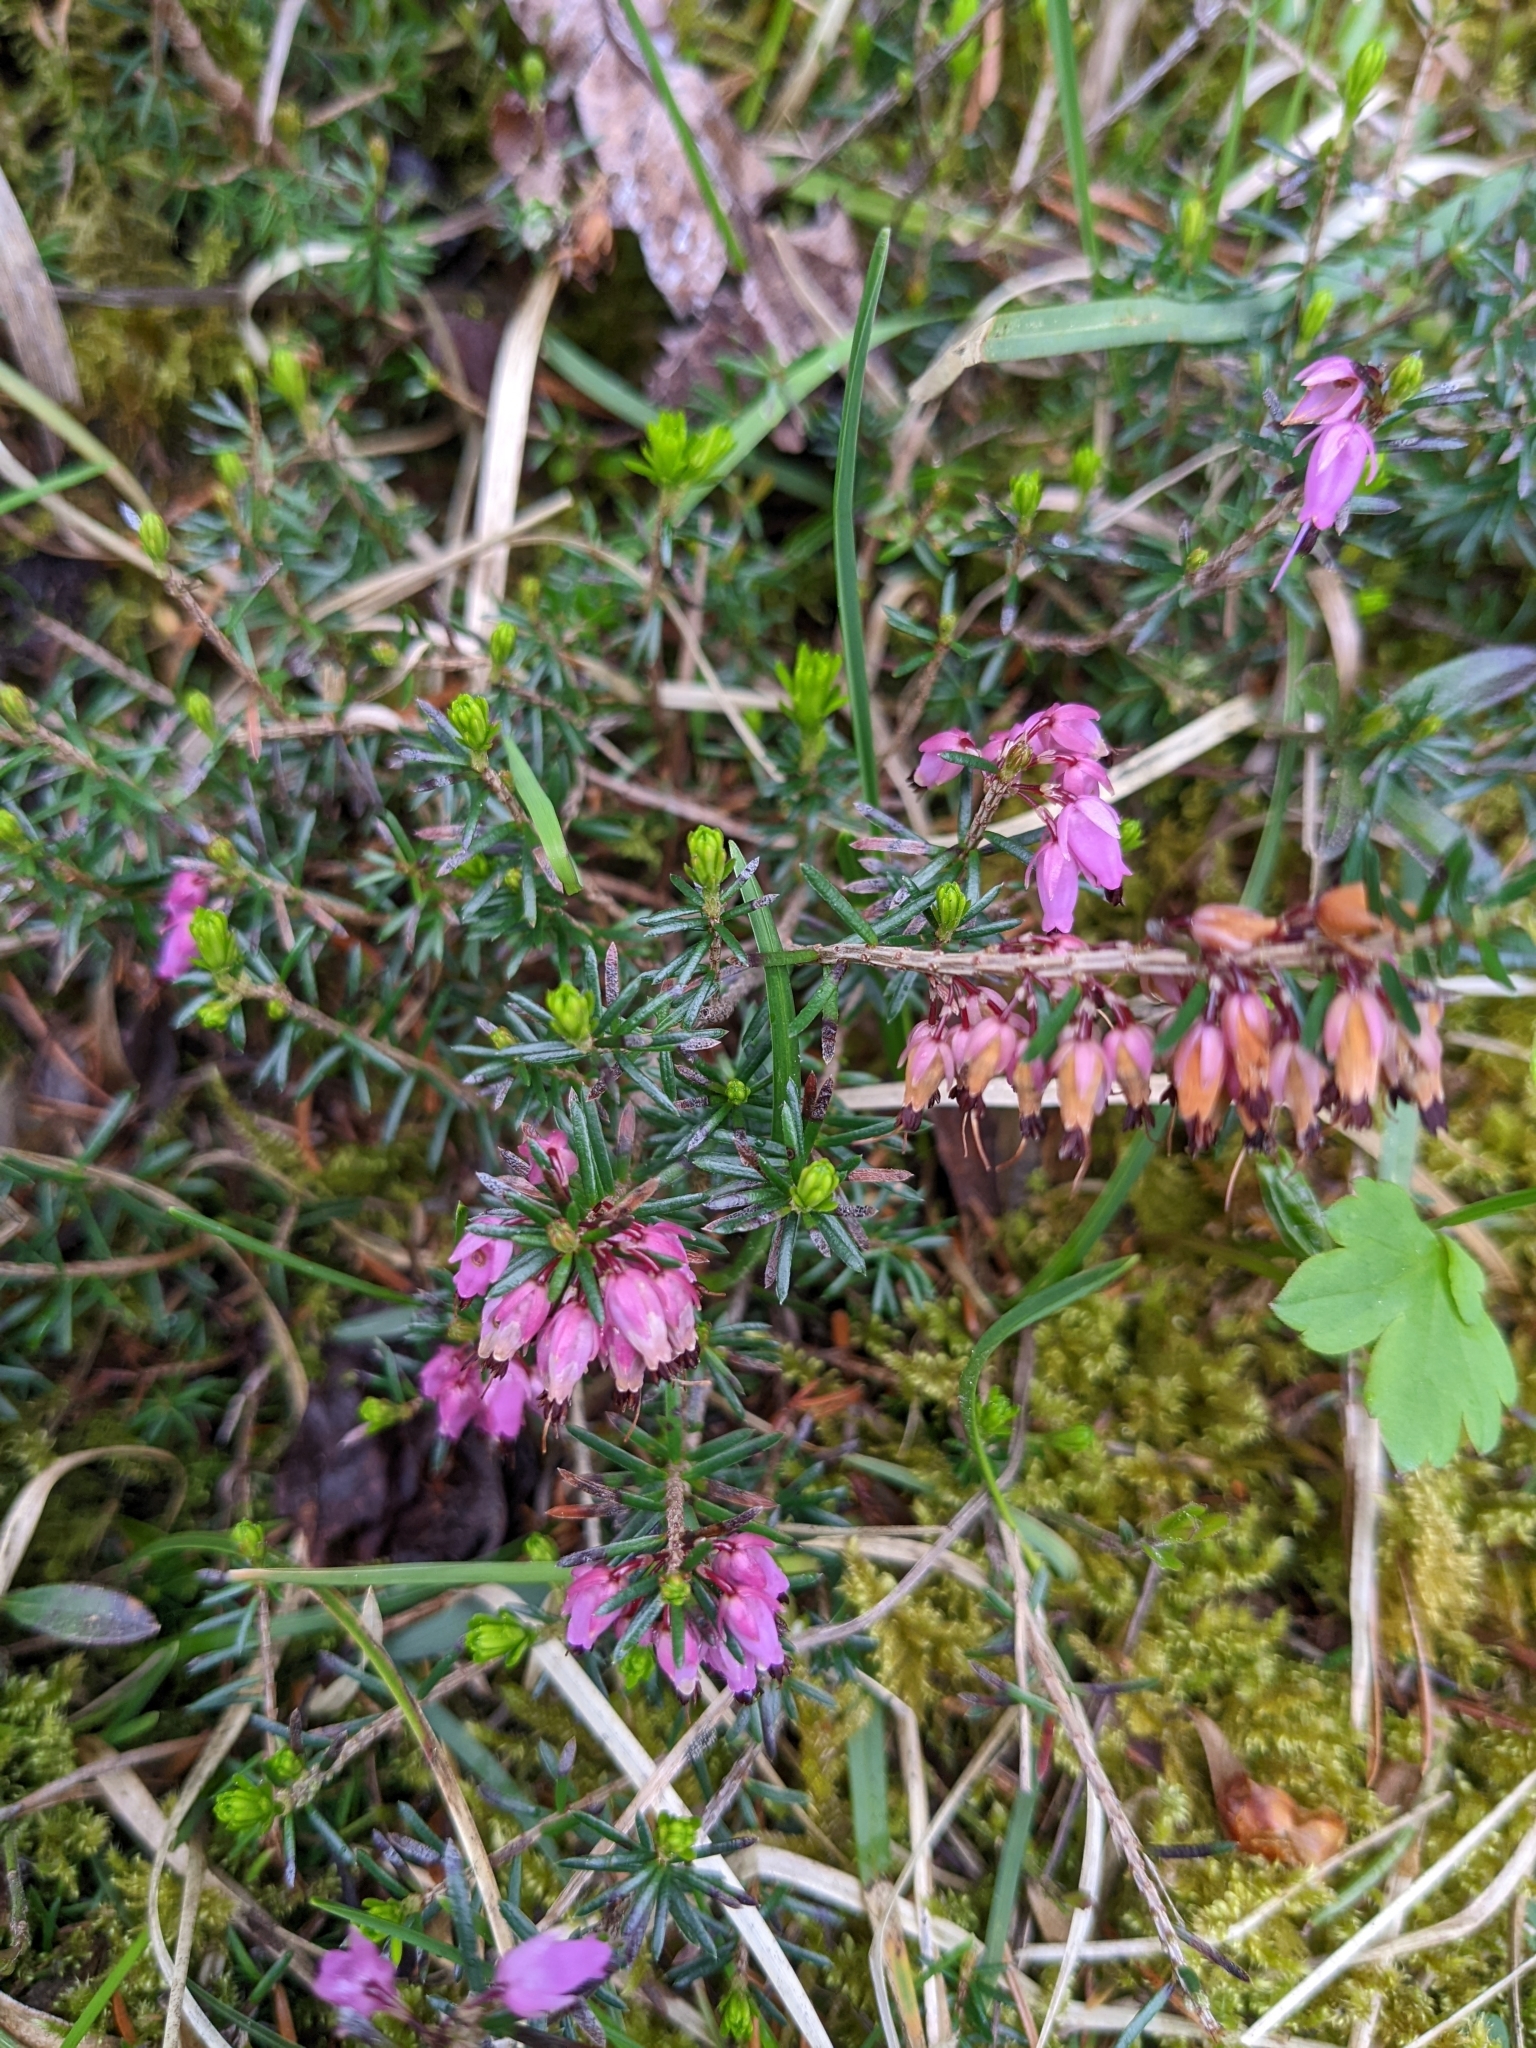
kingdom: Plantae
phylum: Tracheophyta
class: Magnoliopsida
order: Ericales
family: Ericaceae
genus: Erica
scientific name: Erica carnea
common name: Winter heath
